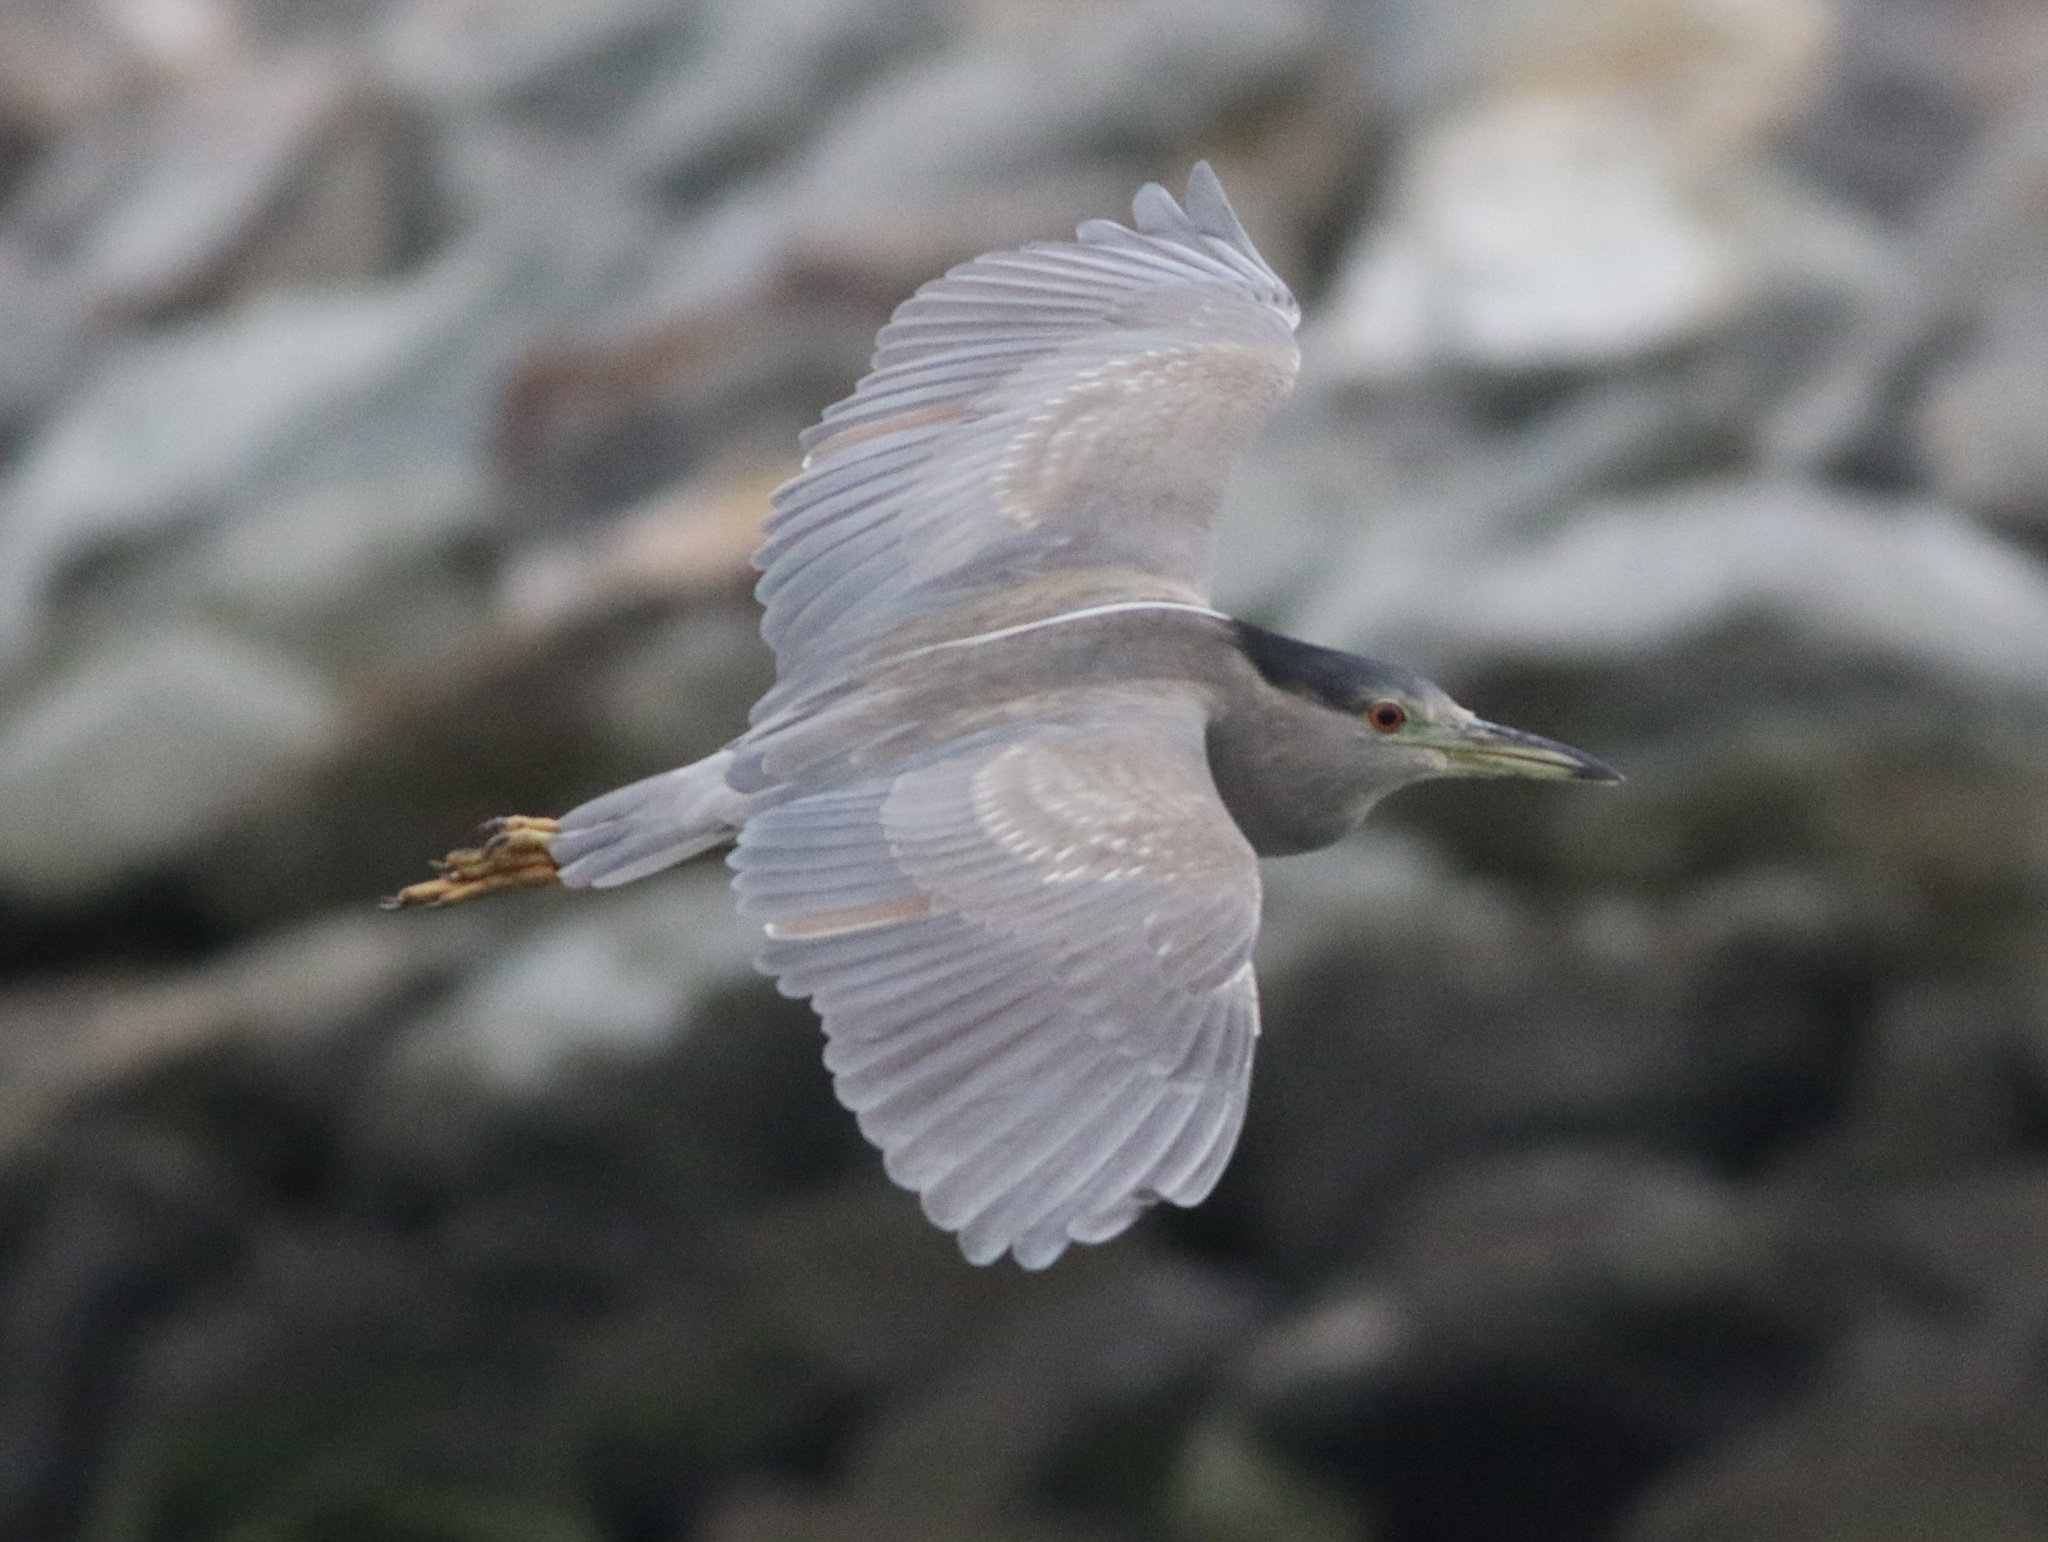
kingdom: Animalia
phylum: Chordata
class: Aves
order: Pelecaniformes
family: Ardeidae
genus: Nycticorax
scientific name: Nycticorax nycticorax
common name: Black-crowned night heron
